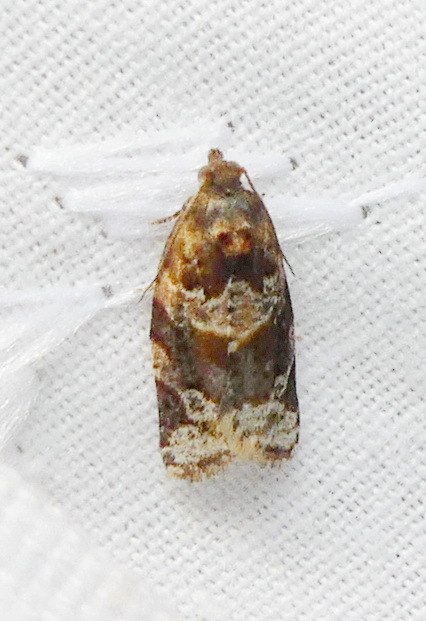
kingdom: Animalia
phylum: Arthropoda
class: Insecta
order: Lepidoptera
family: Tortricidae
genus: Argyrotaenia
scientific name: Argyrotaenia velutinana
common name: Red-banded leafroller moth
